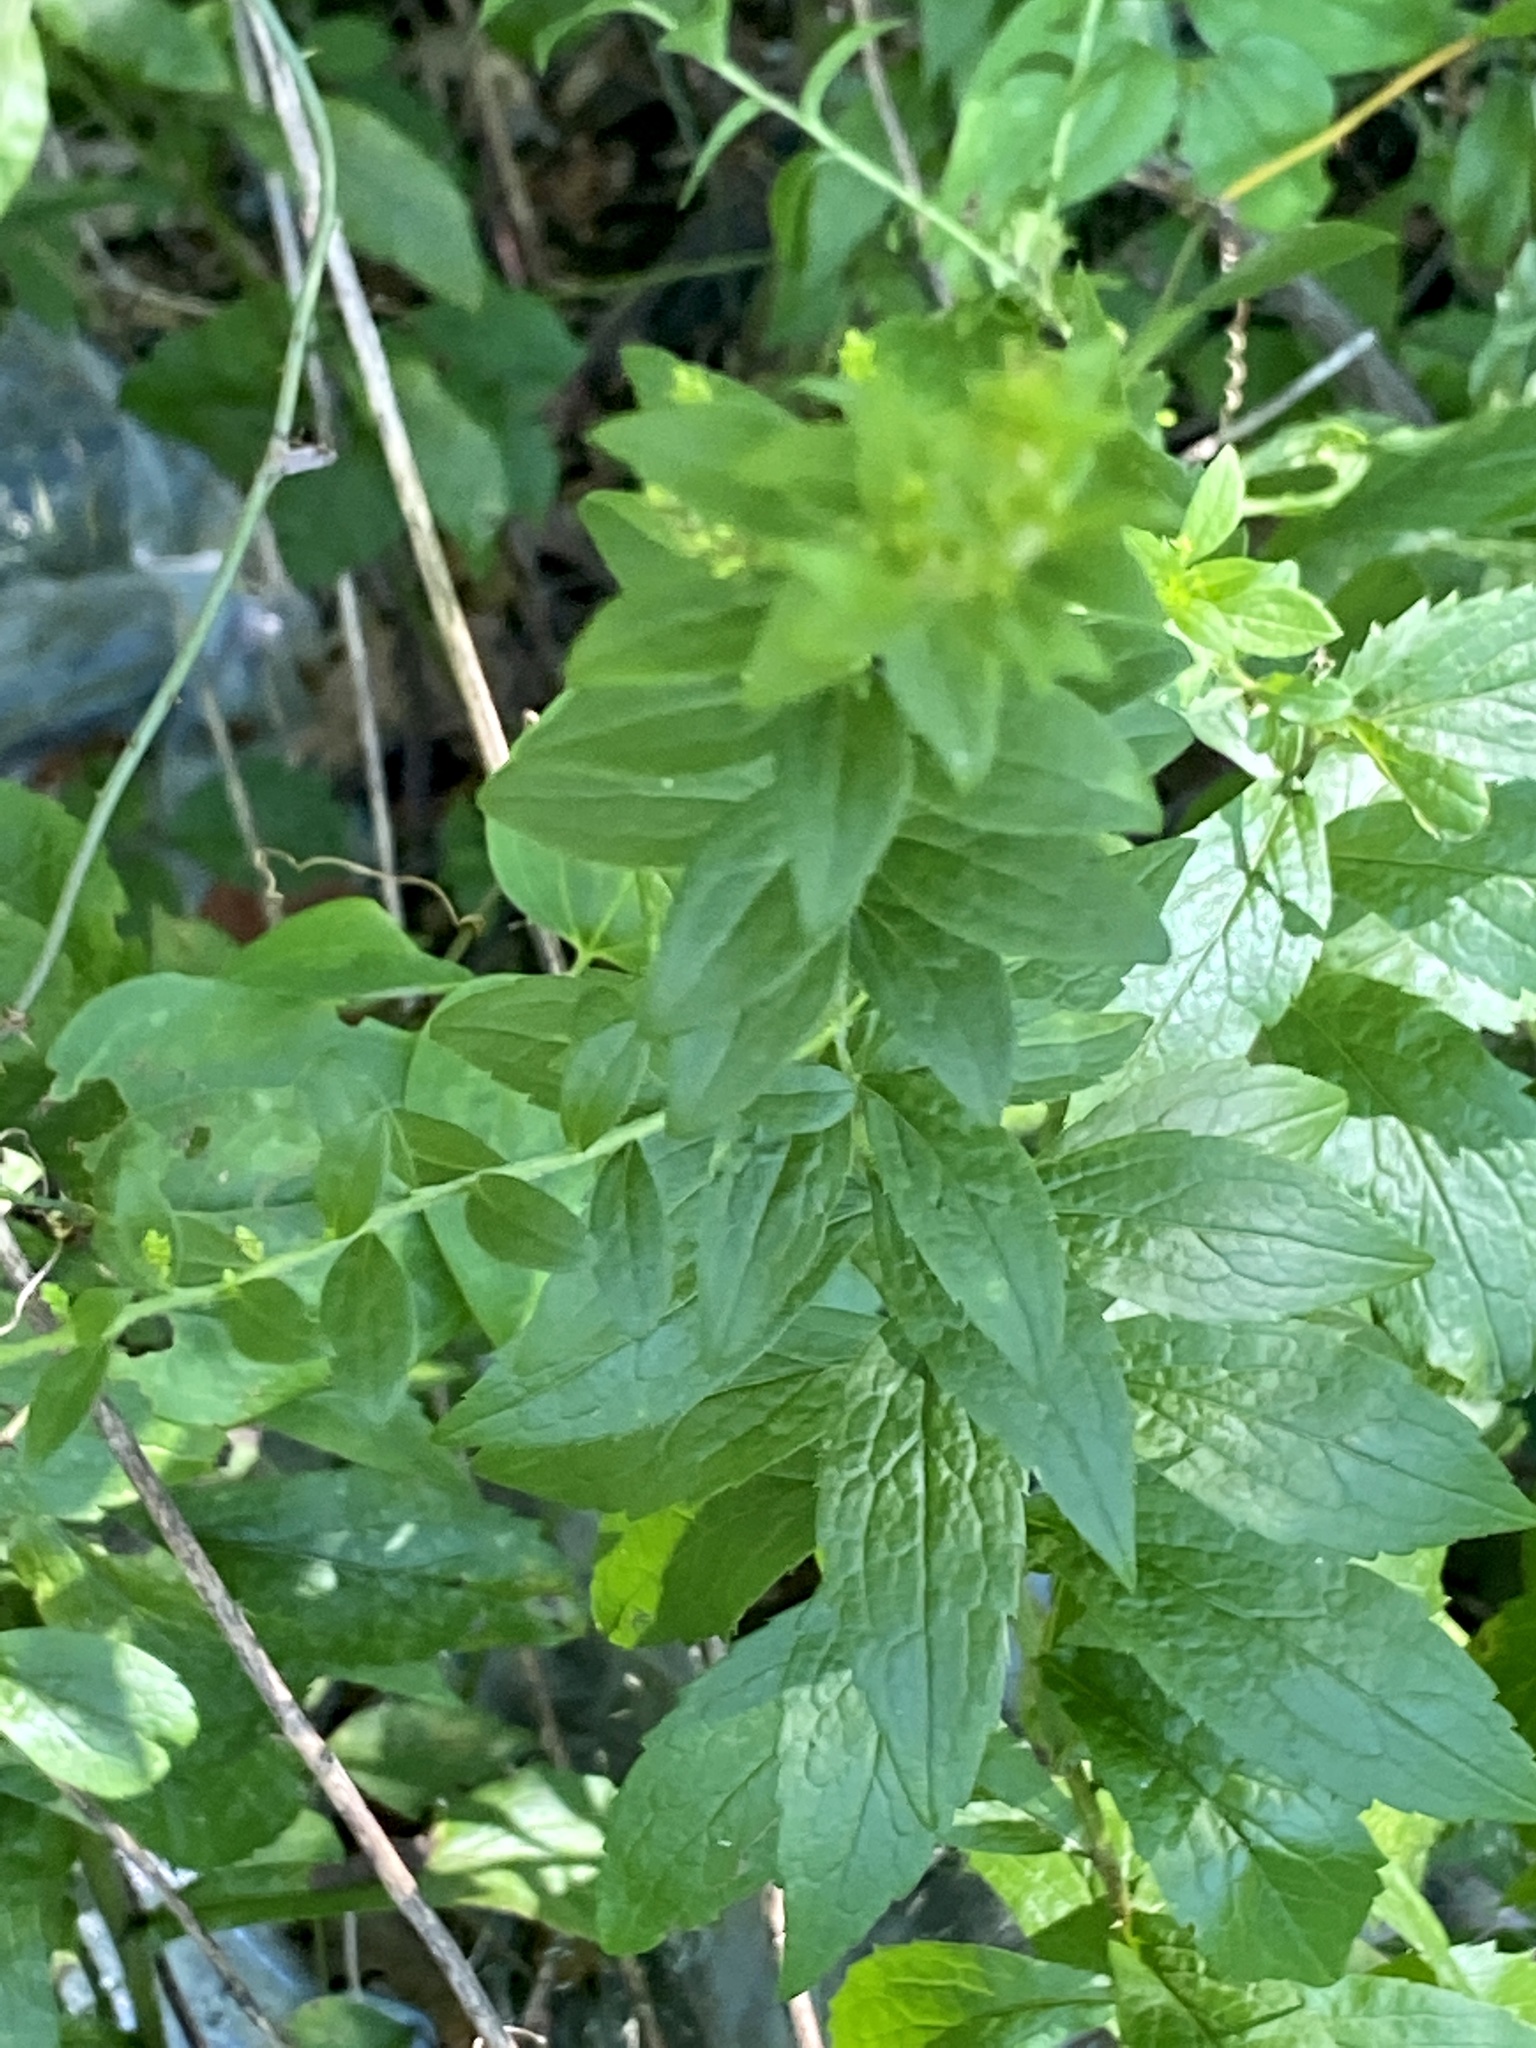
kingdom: Plantae
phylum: Tracheophyta
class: Magnoliopsida
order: Asterales
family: Asteraceae
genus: Solidago
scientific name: Solidago rugosa
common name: Rough-stemmed goldenrod
